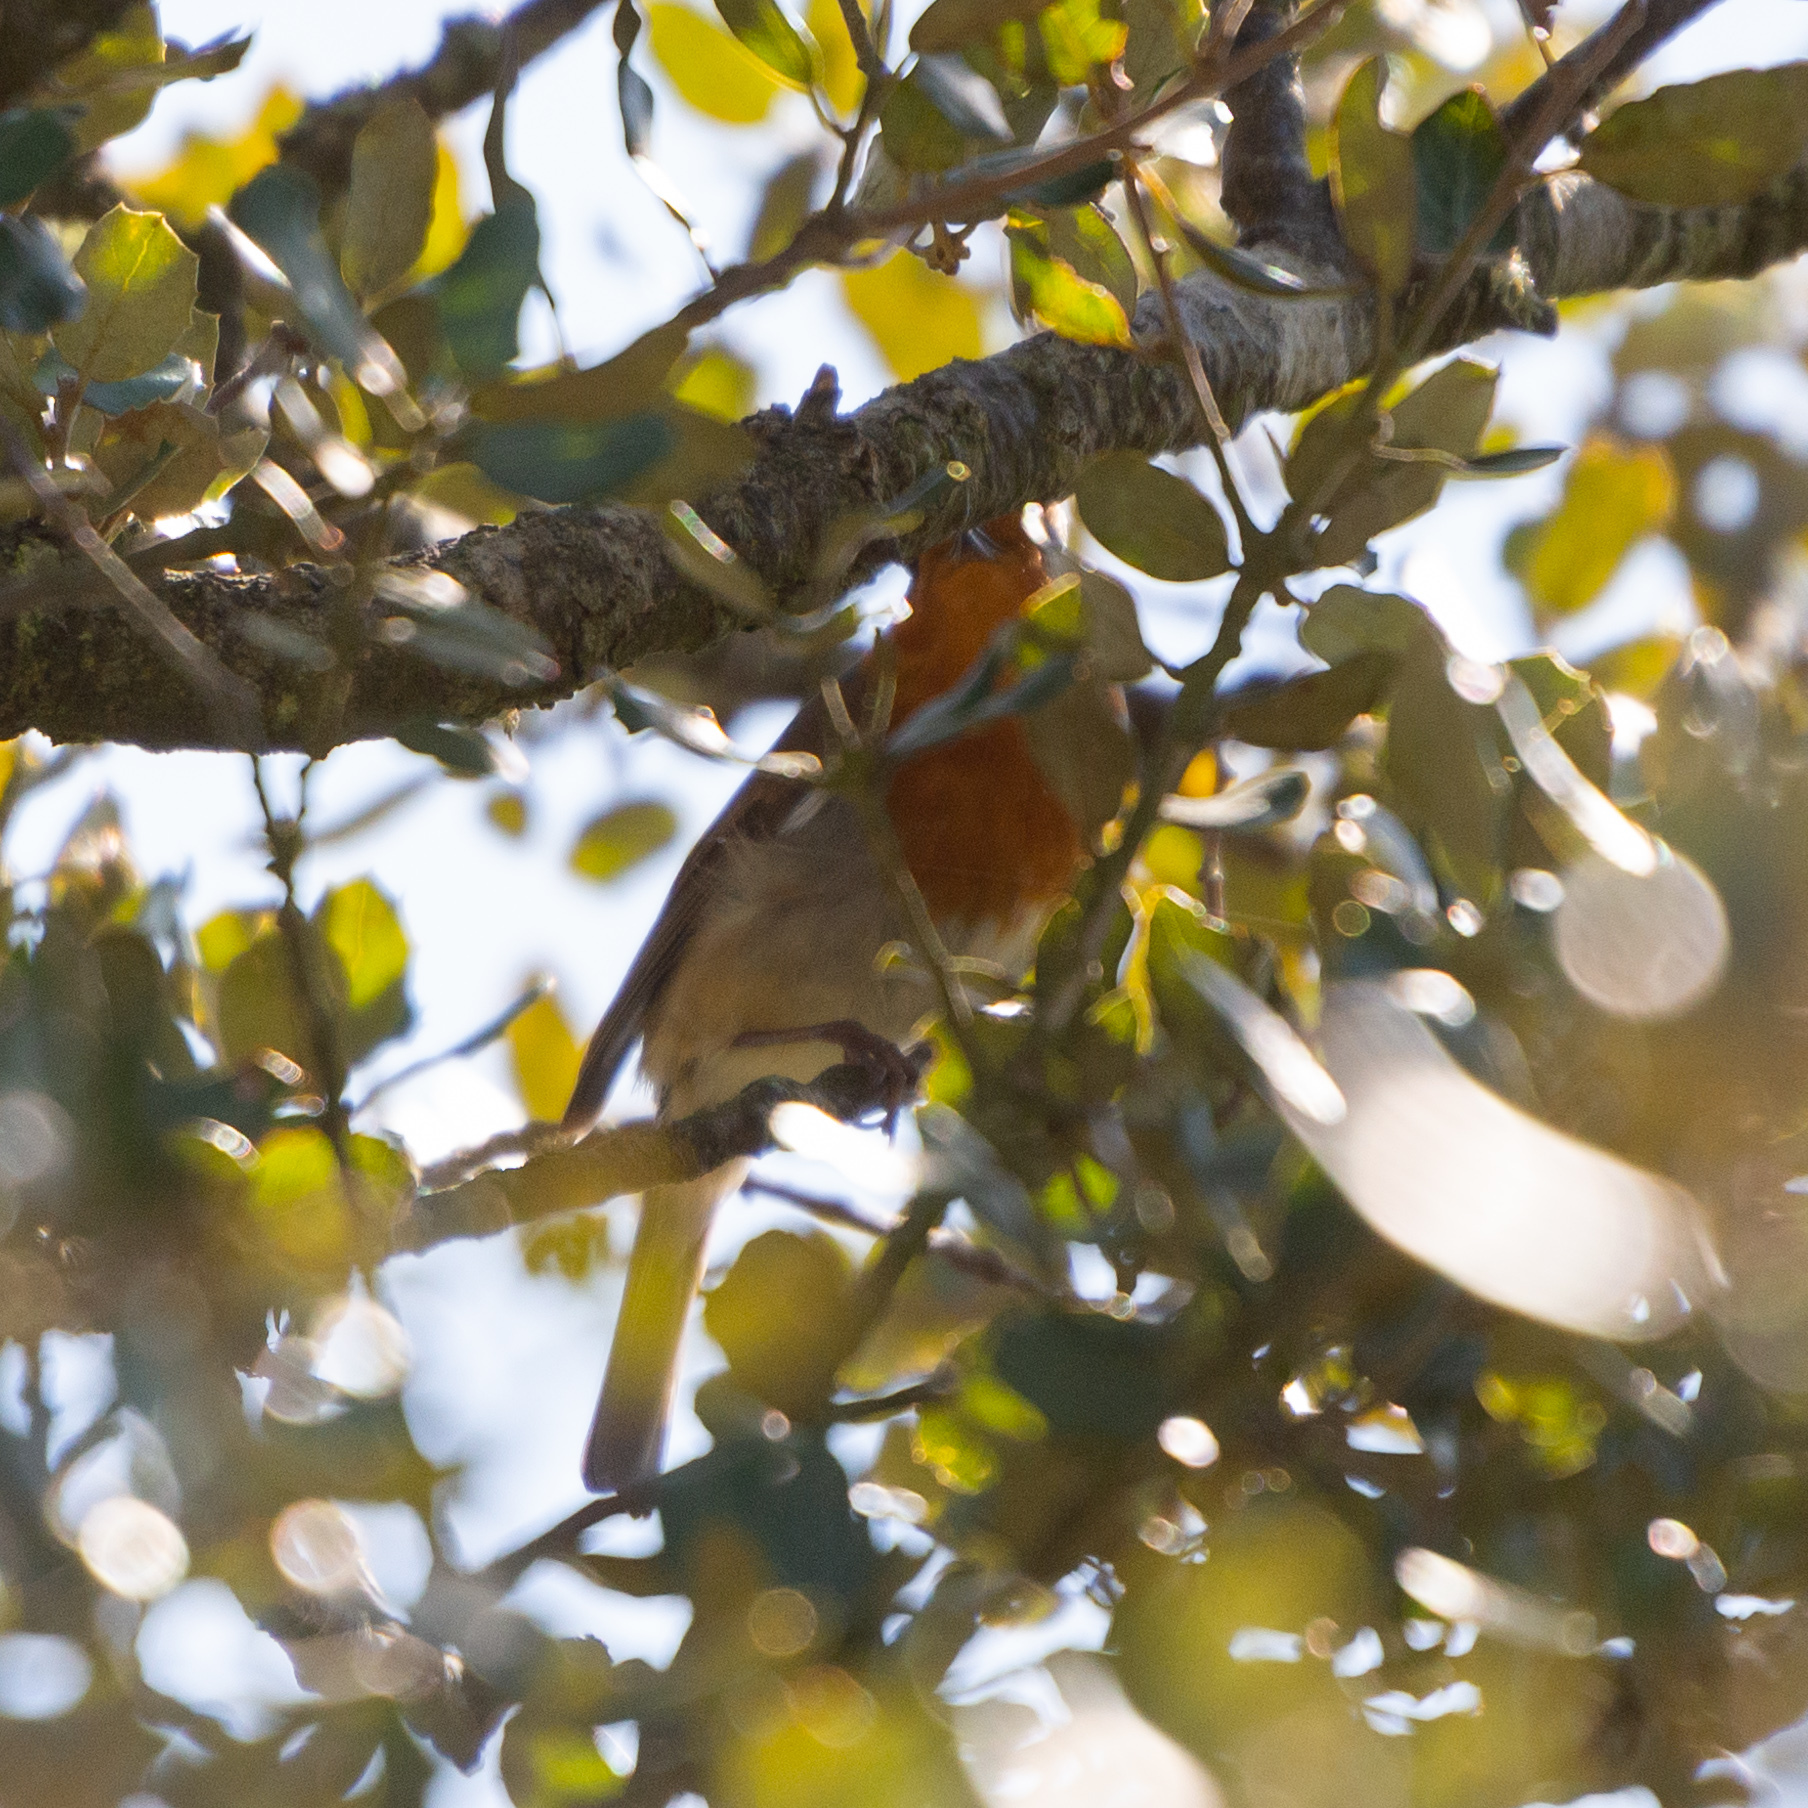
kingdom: Animalia
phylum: Chordata
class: Aves
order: Passeriformes
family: Muscicapidae
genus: Erithacus
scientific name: Erithacus rubecula
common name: European robin
